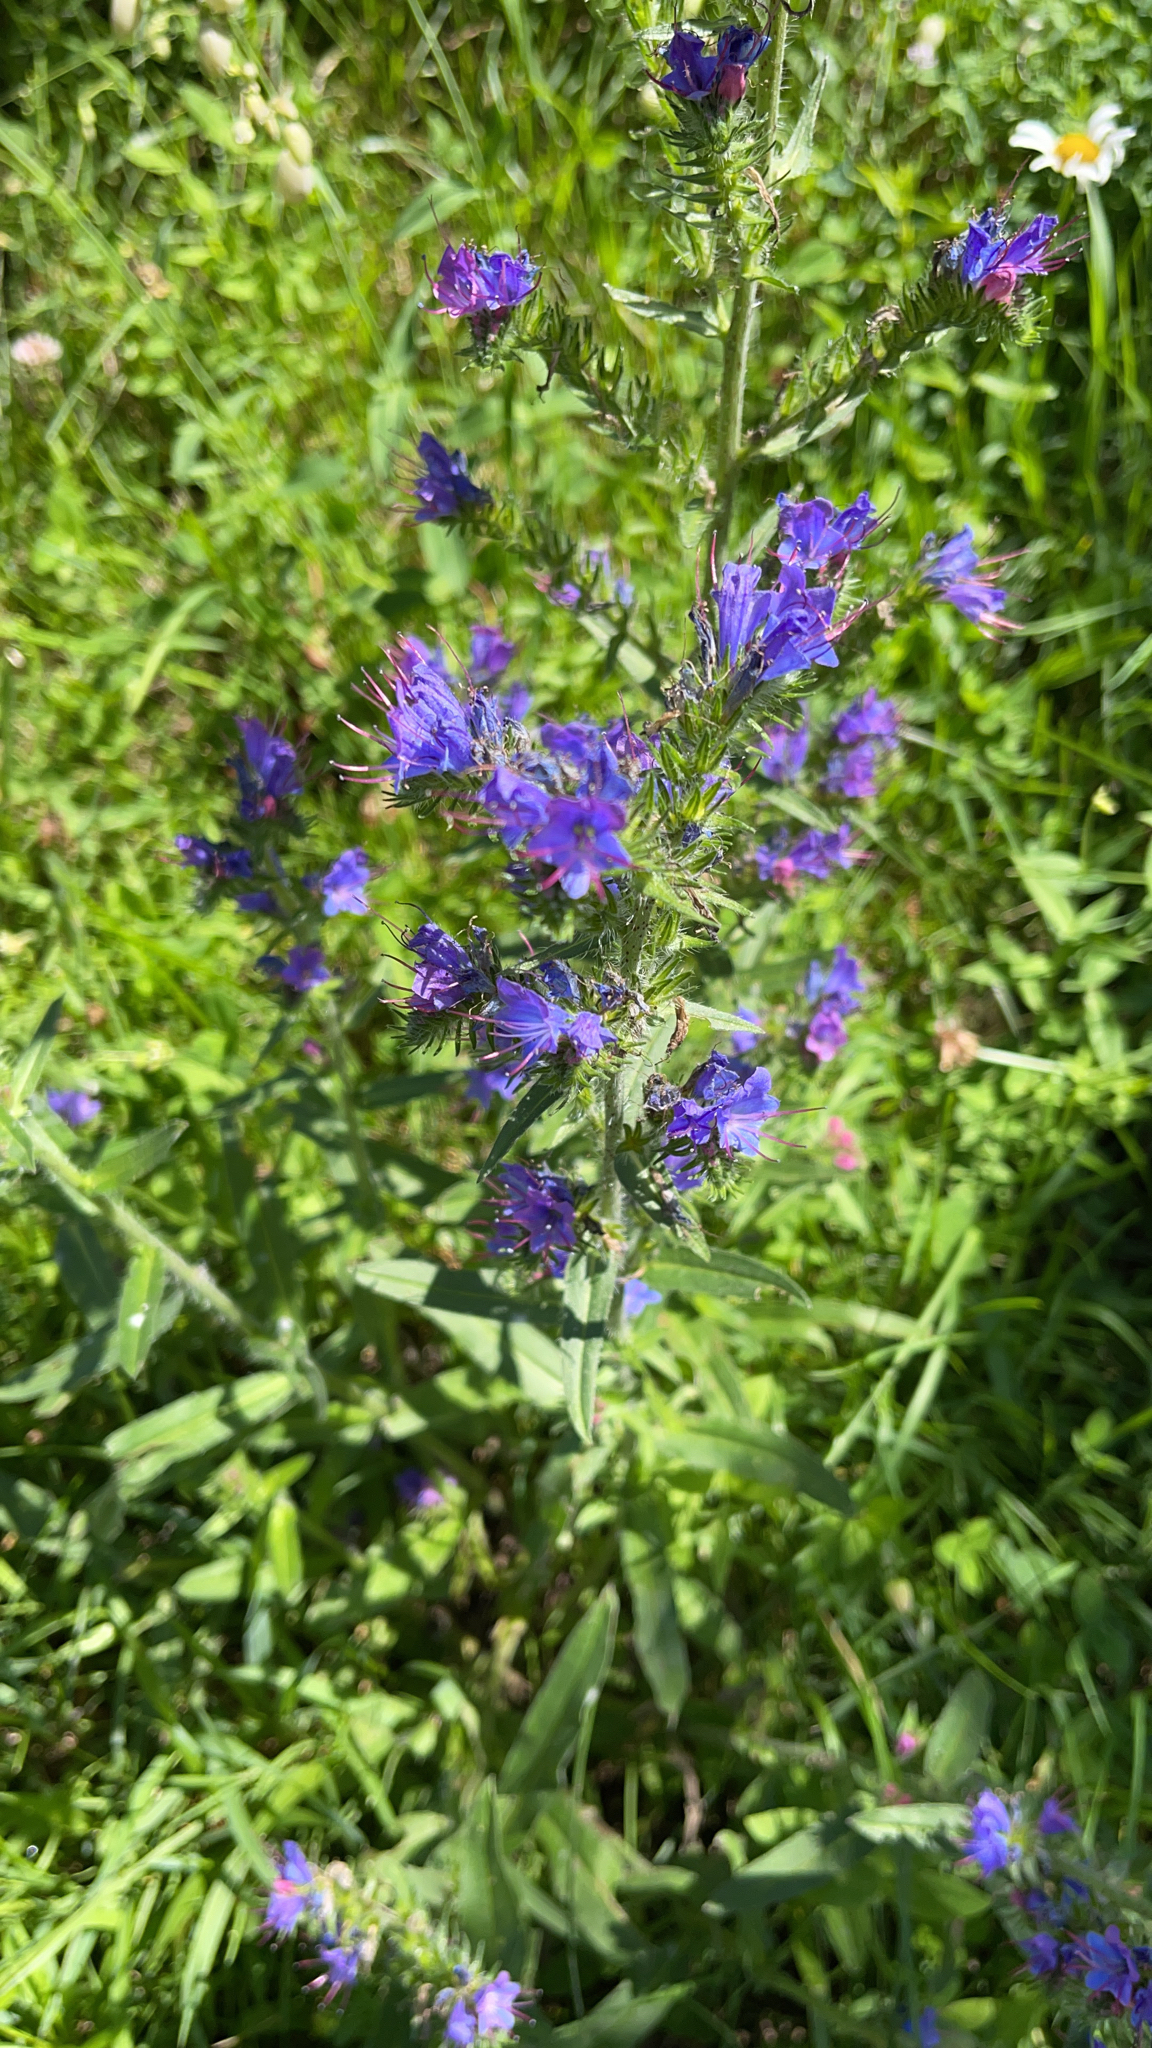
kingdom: Plantae
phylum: Tracheophyta
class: Magnoliopsida
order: Boraginales
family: Boraginaceae
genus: Echium
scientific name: Echium vulgare
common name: Common viper's bugloss
